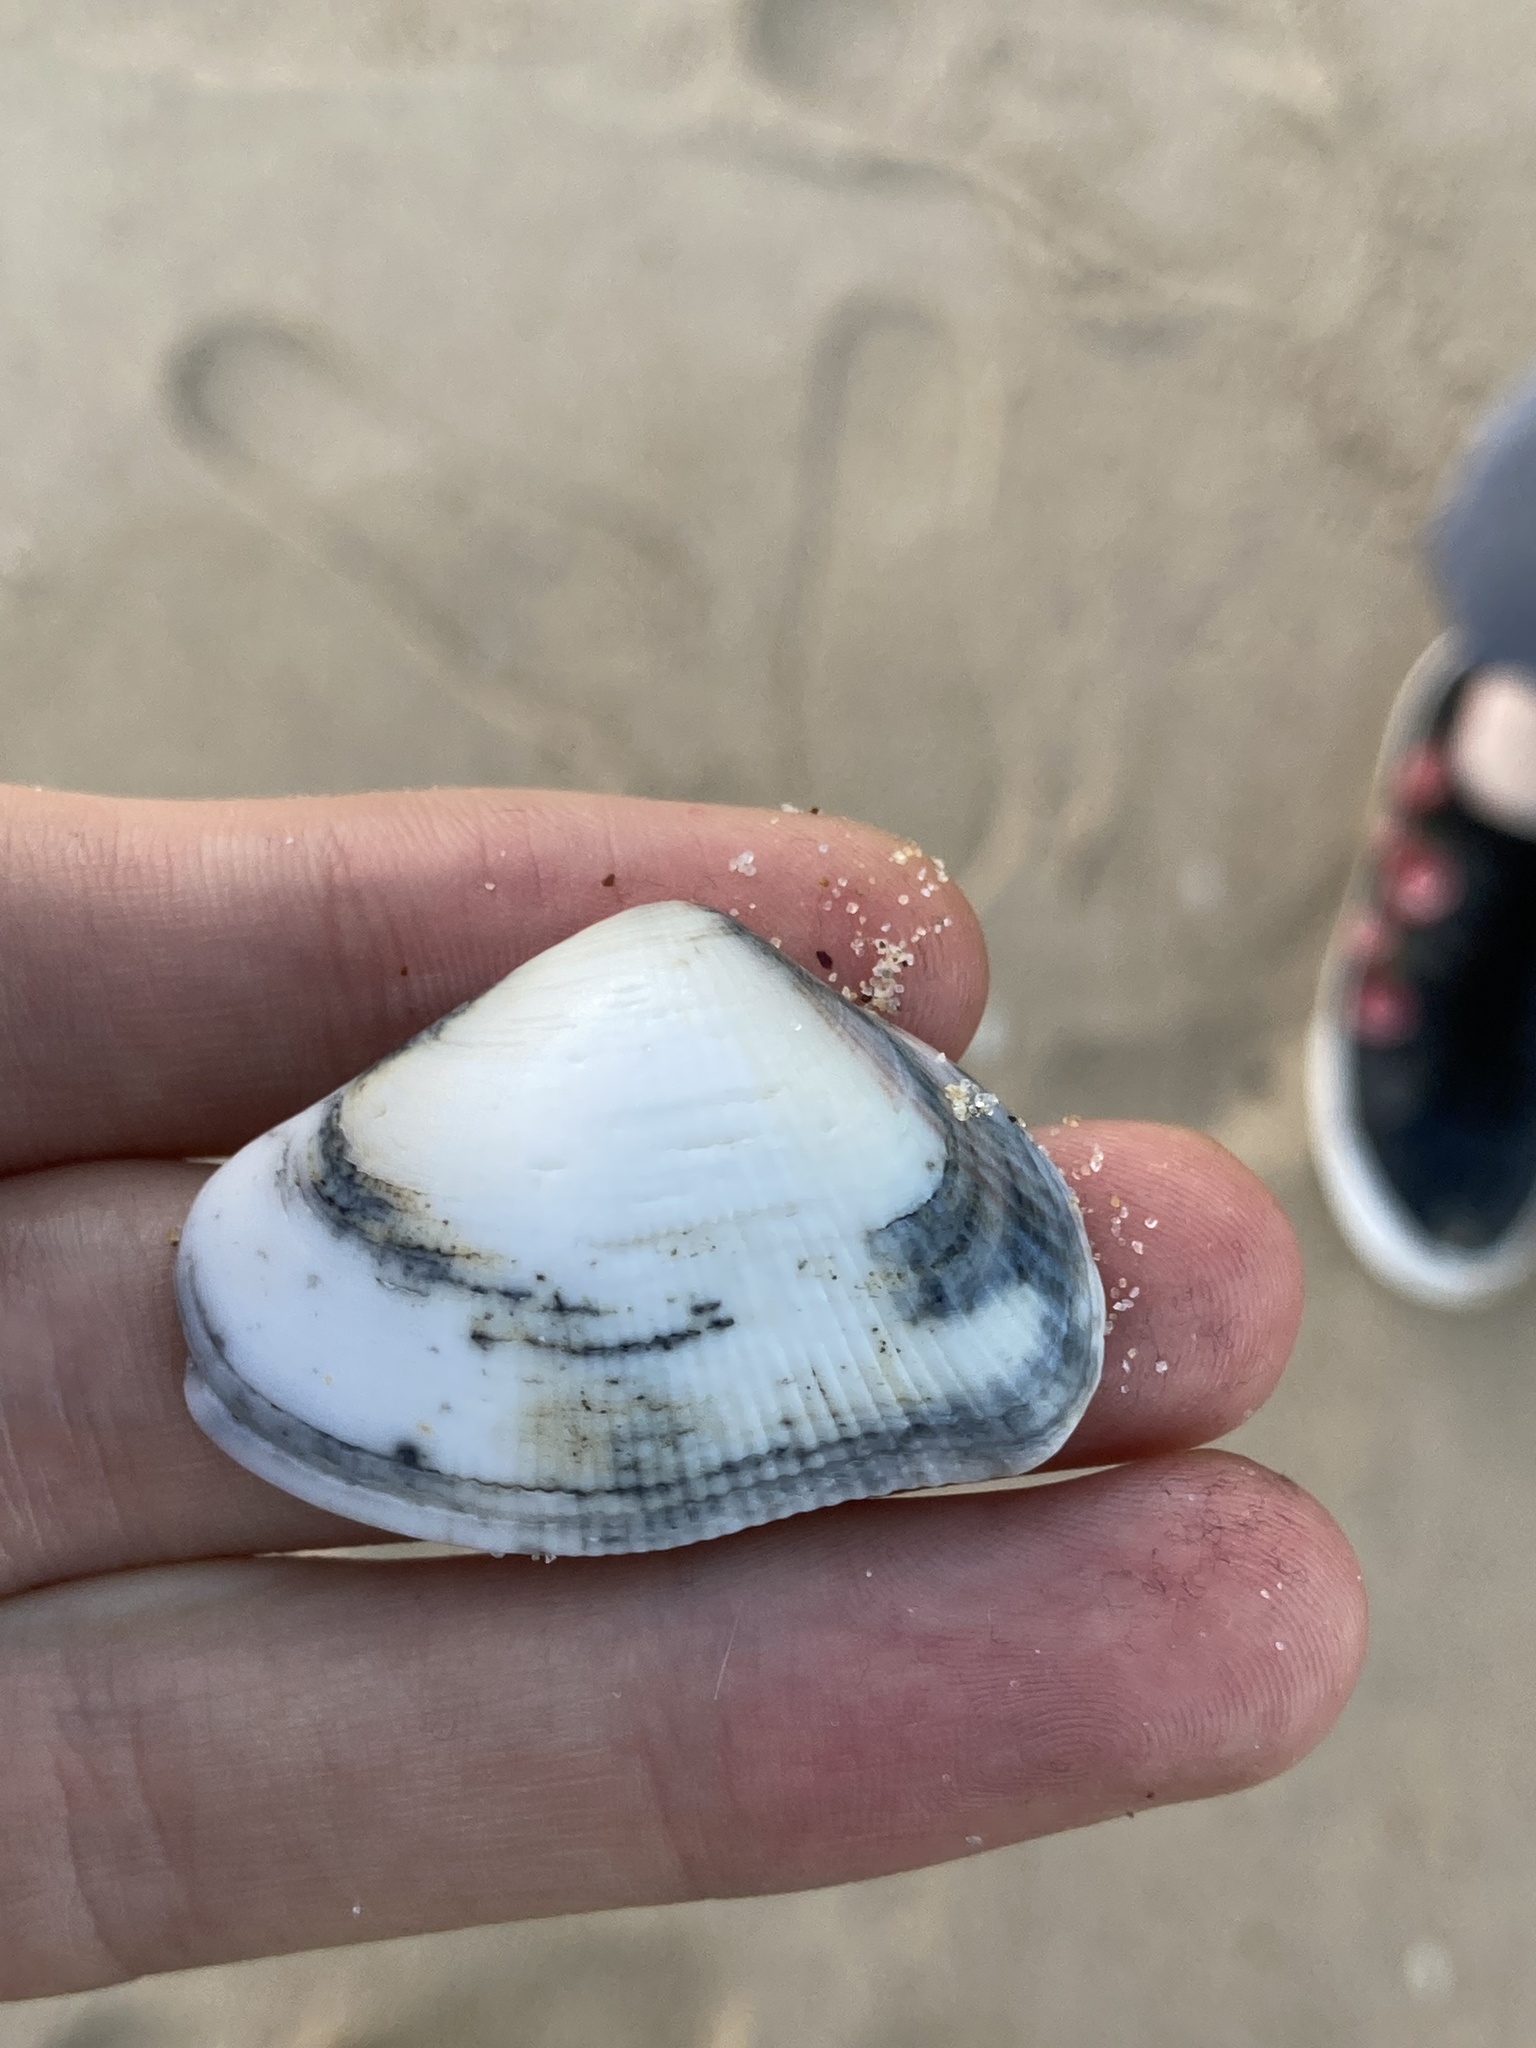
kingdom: Animalia
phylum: Mollusca
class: Bivalvia
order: Venerida
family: Hemidonacidae
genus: Hemidonax
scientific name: Hemidonax pictus
